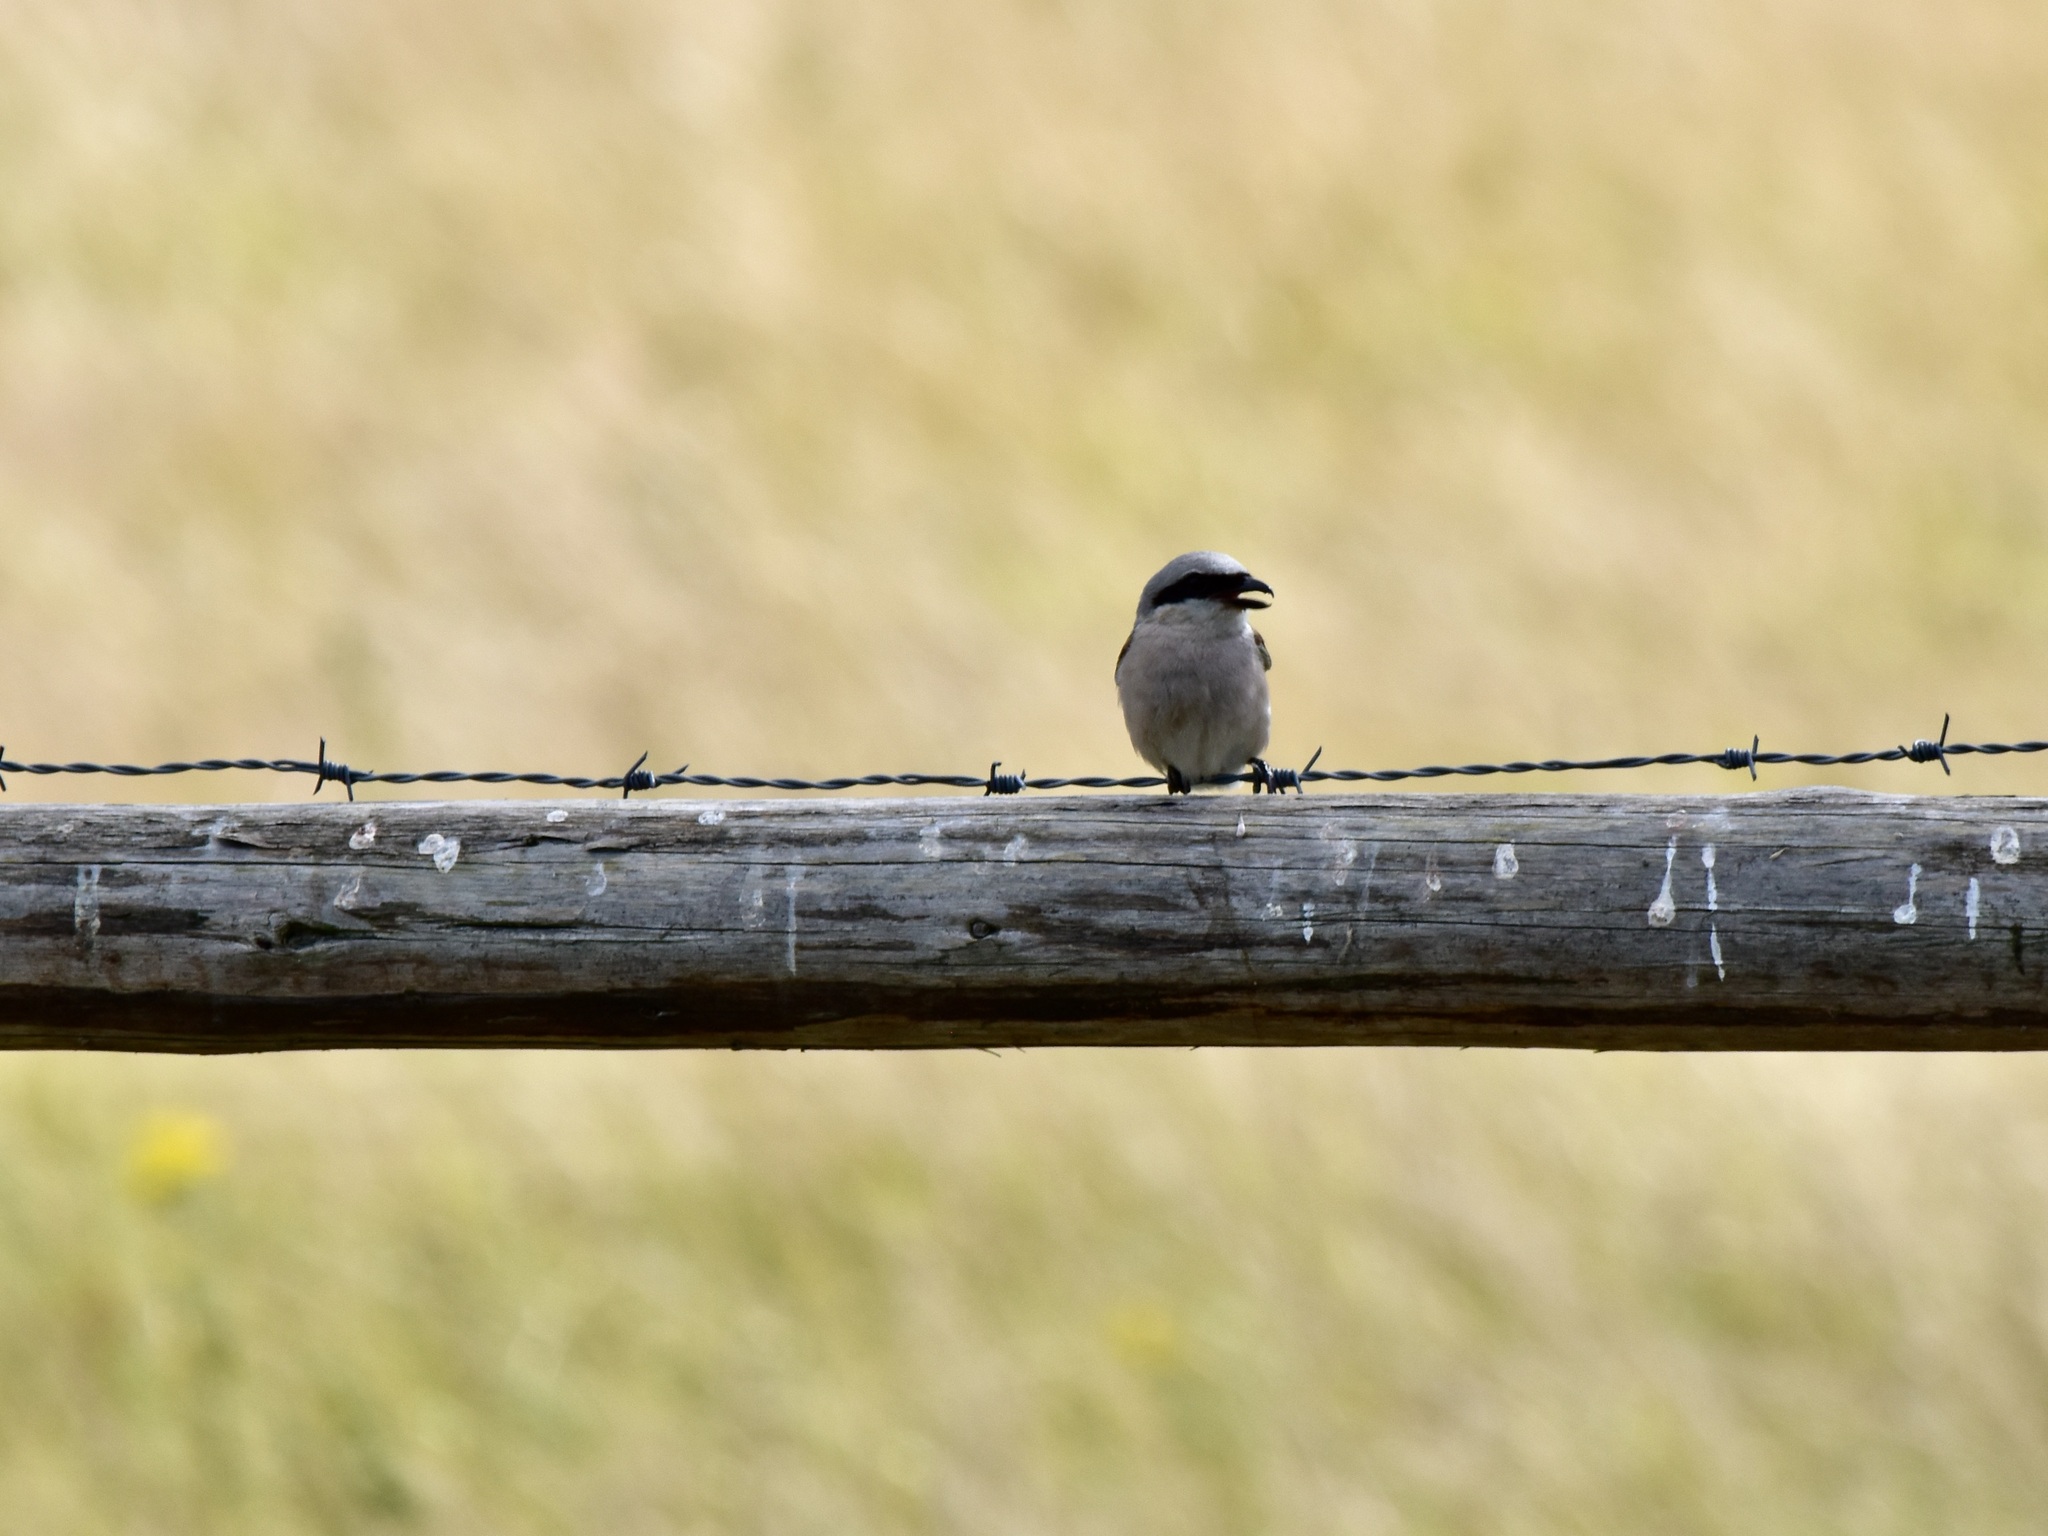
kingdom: Animalia
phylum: Chordata
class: Aves
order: Passeriformes
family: Laniidae
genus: Lanius
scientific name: Lanius collurio
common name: Red-backed shrike
